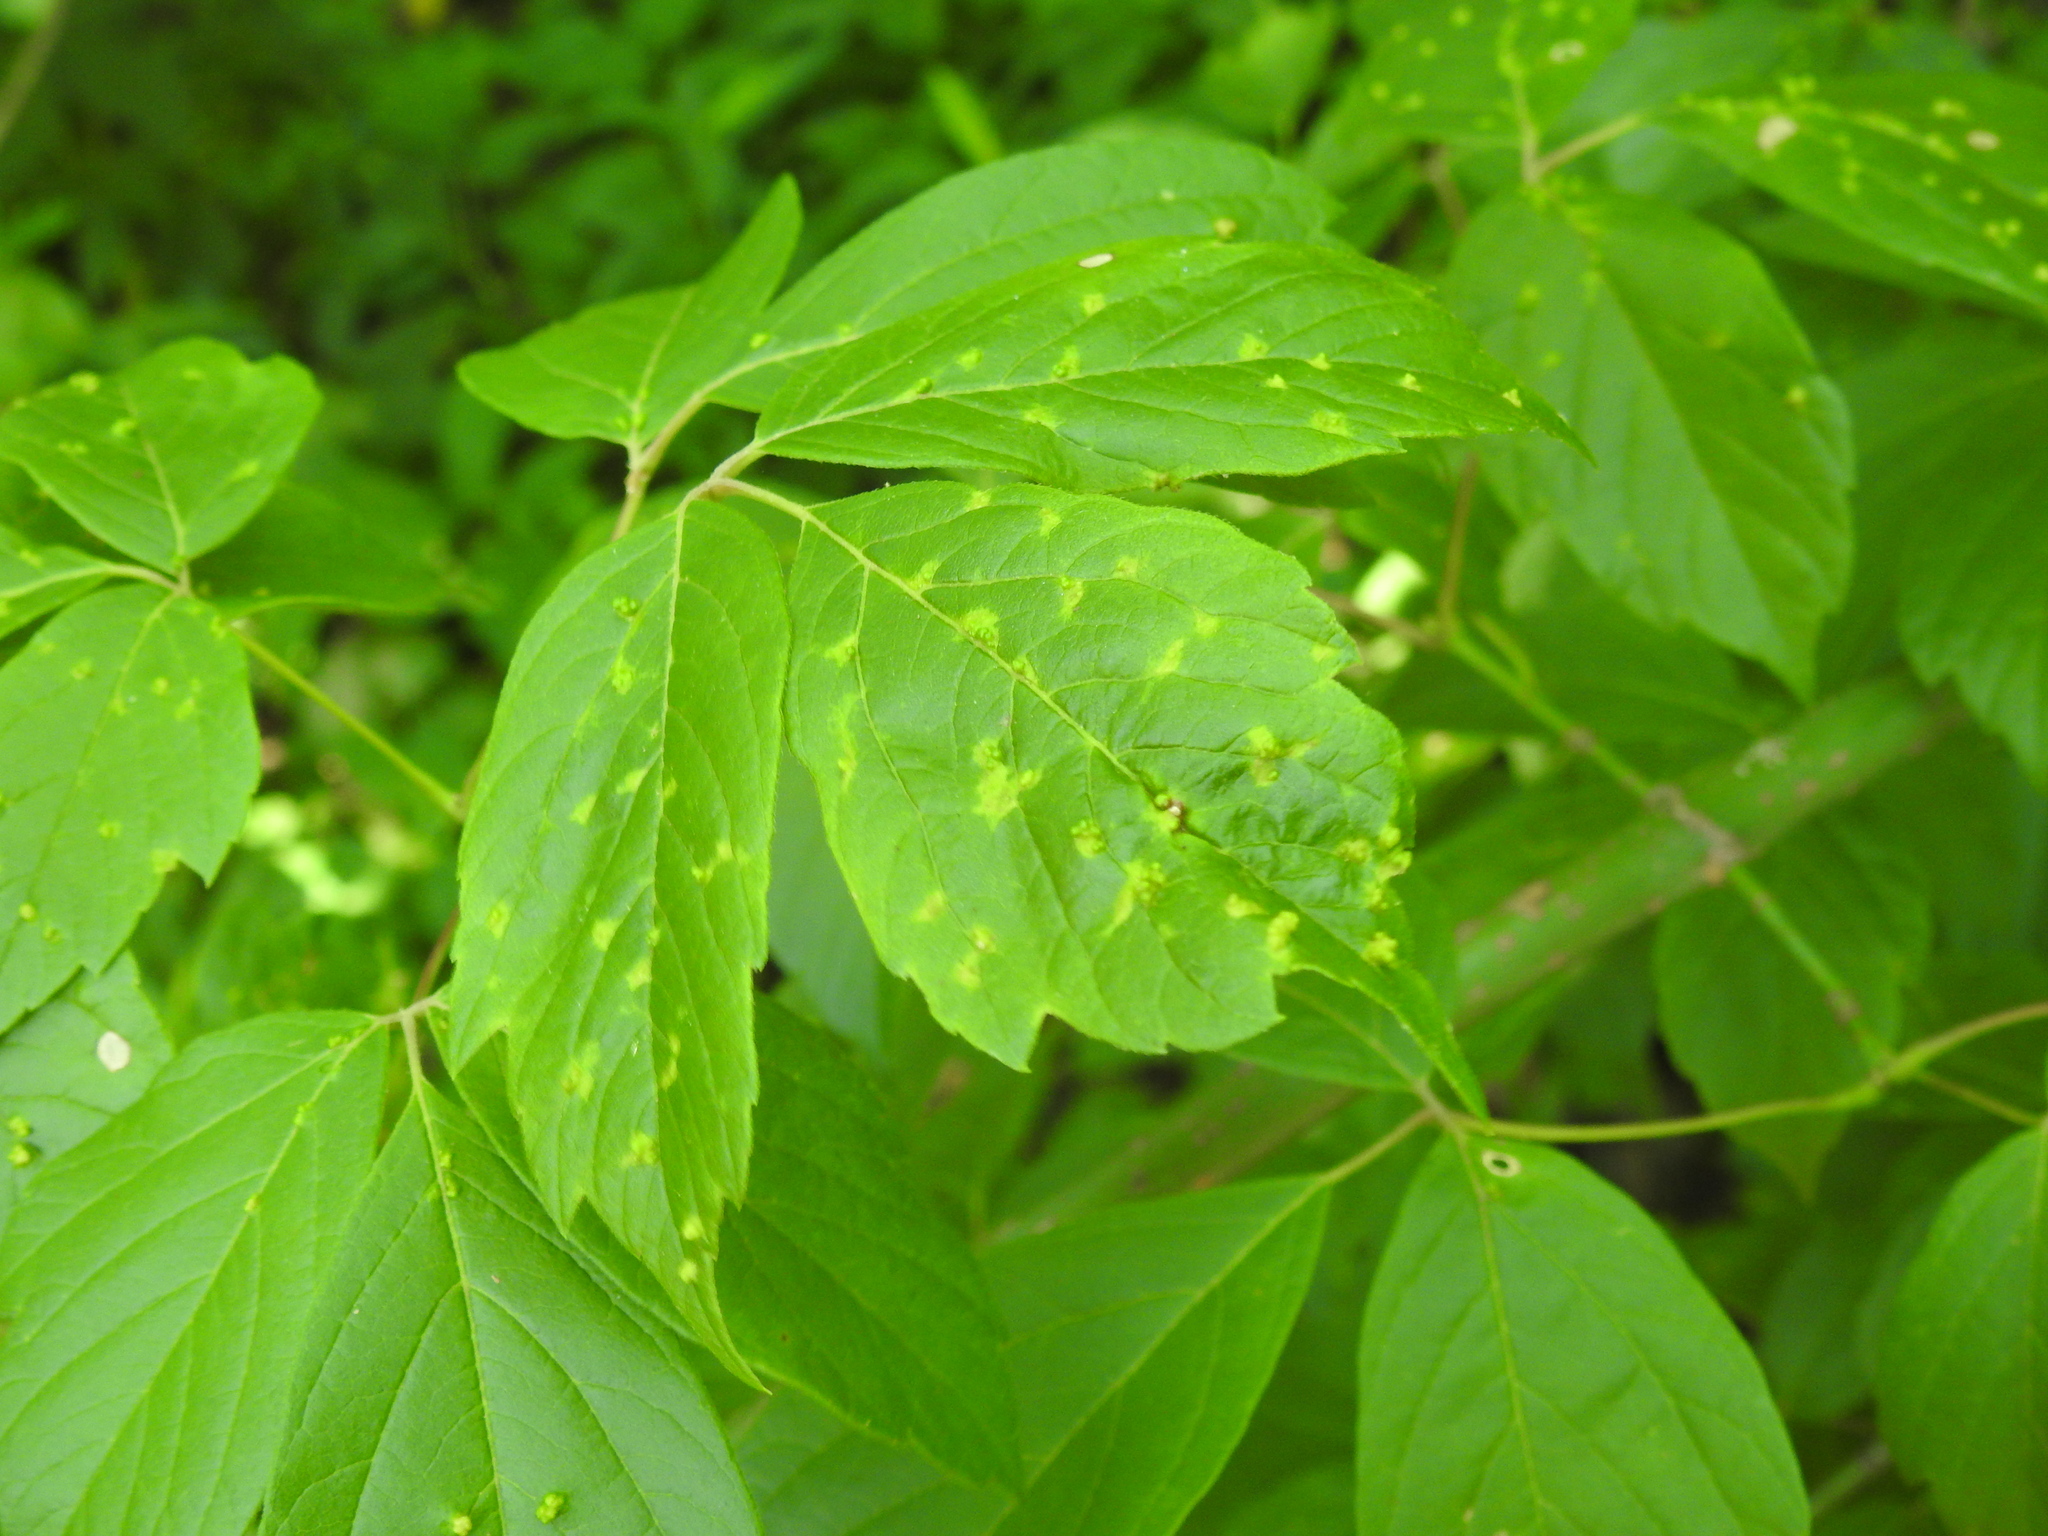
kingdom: Animalia
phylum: Arthropoda
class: Arachnida
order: Trombidiformes
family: Eriophyidae
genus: Aceria
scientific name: Aceria
